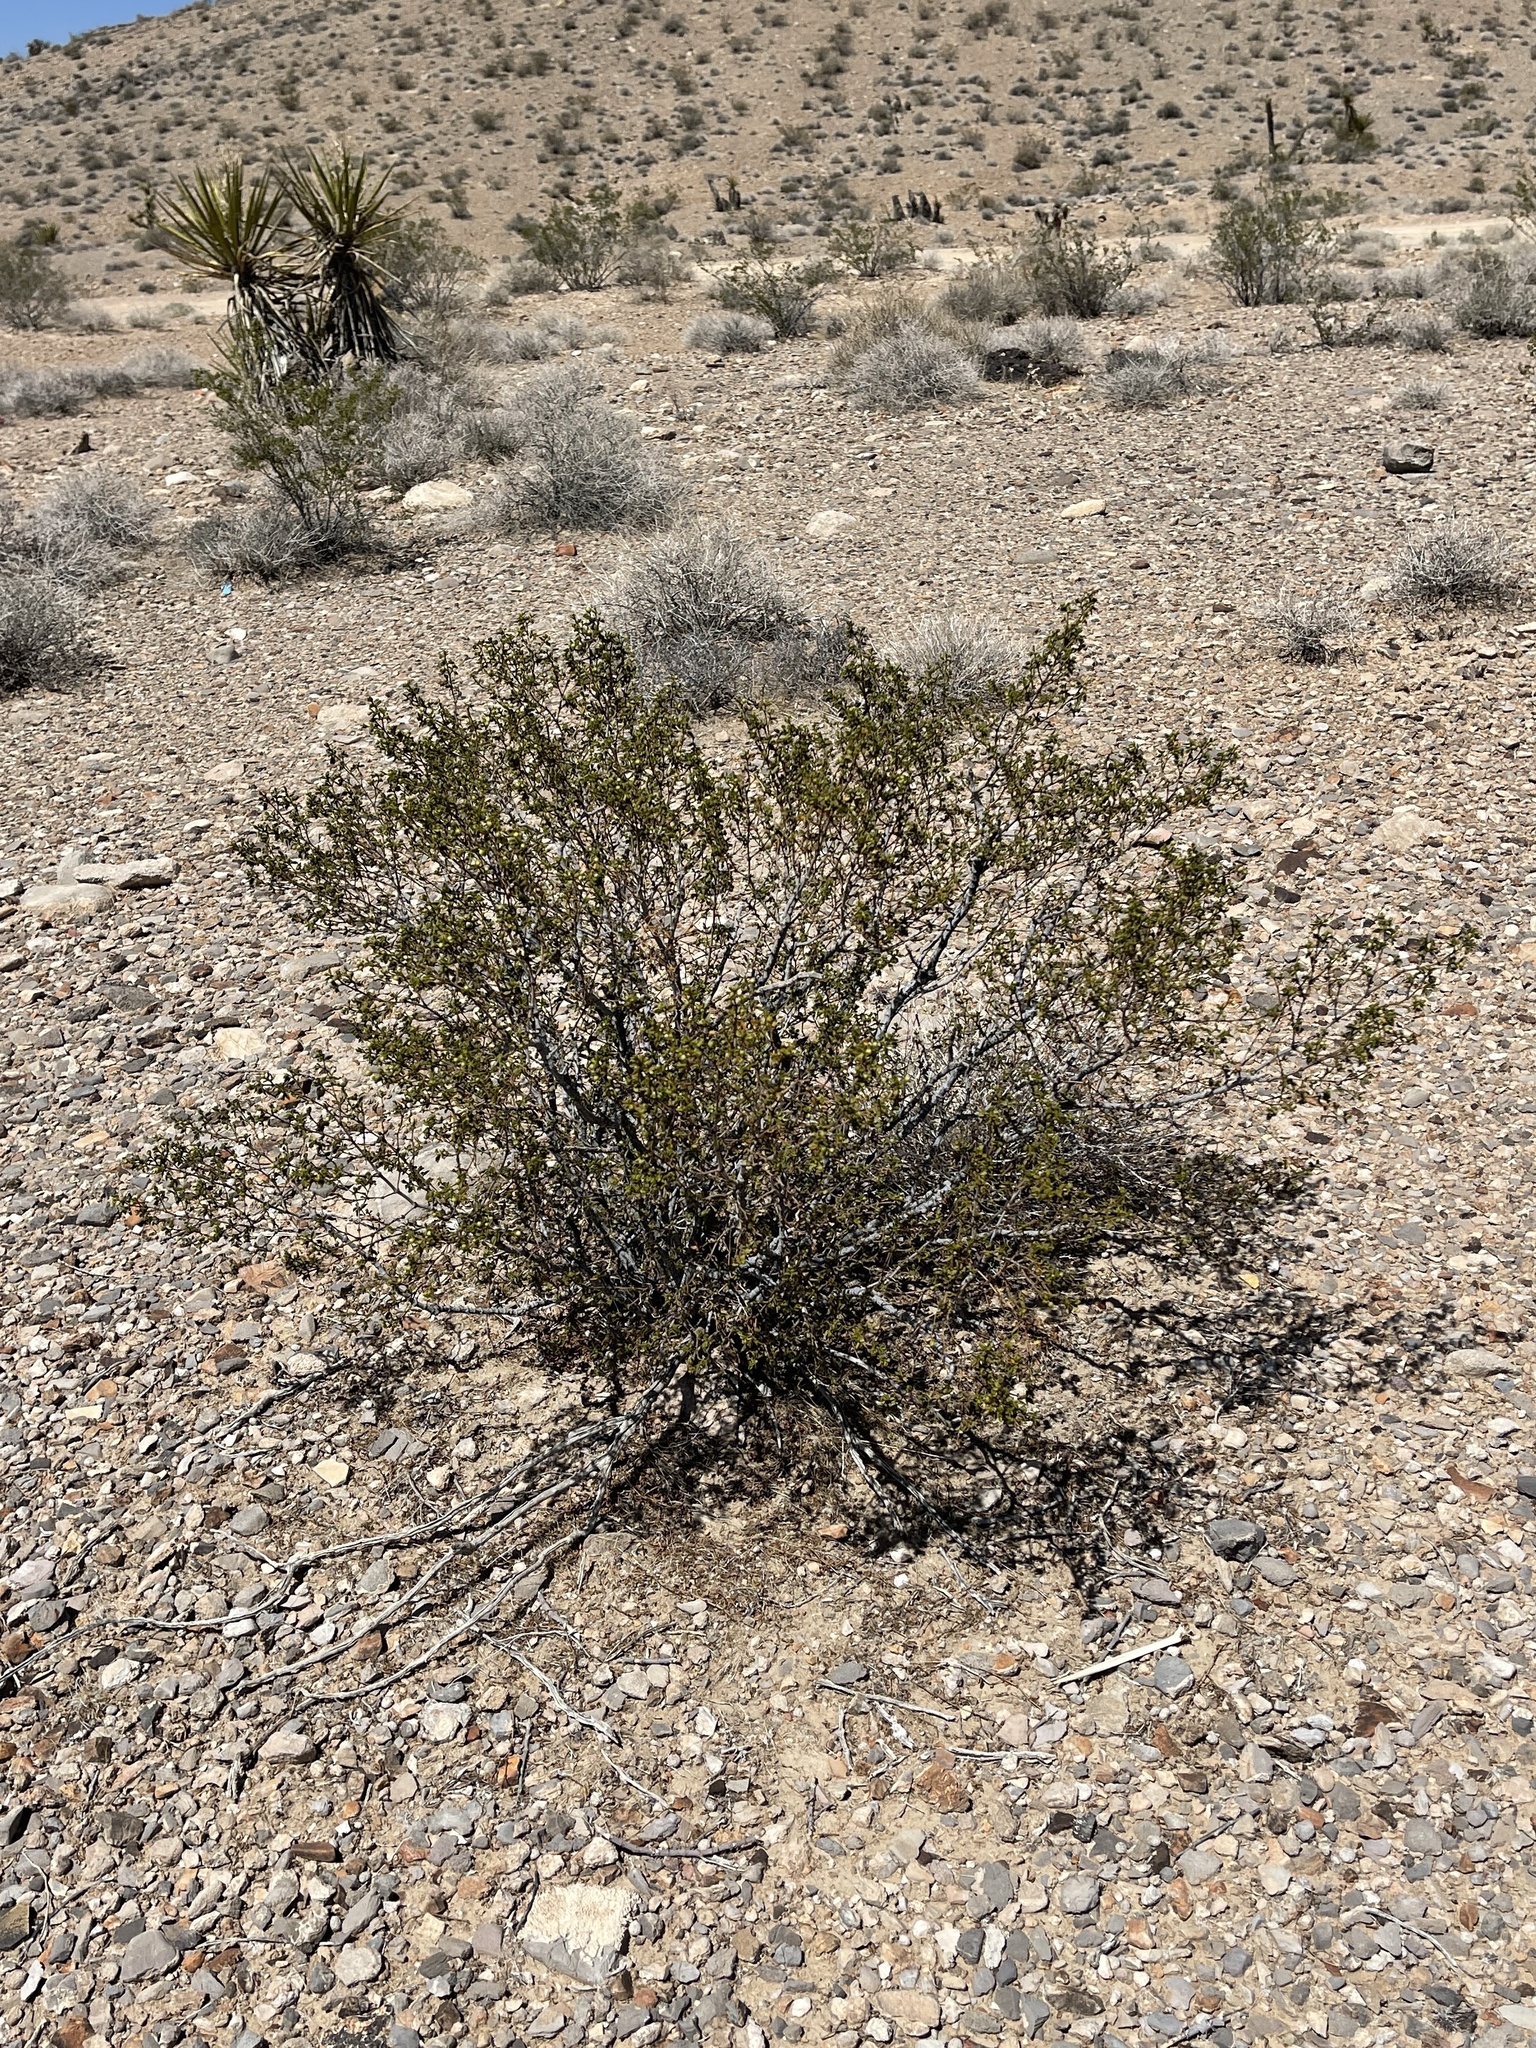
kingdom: Plantae
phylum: Tracheophyta
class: Magnoliopsida
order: Zygophyllales
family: Zygophyllaceae
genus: Larrea
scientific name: Larrea tridentata
